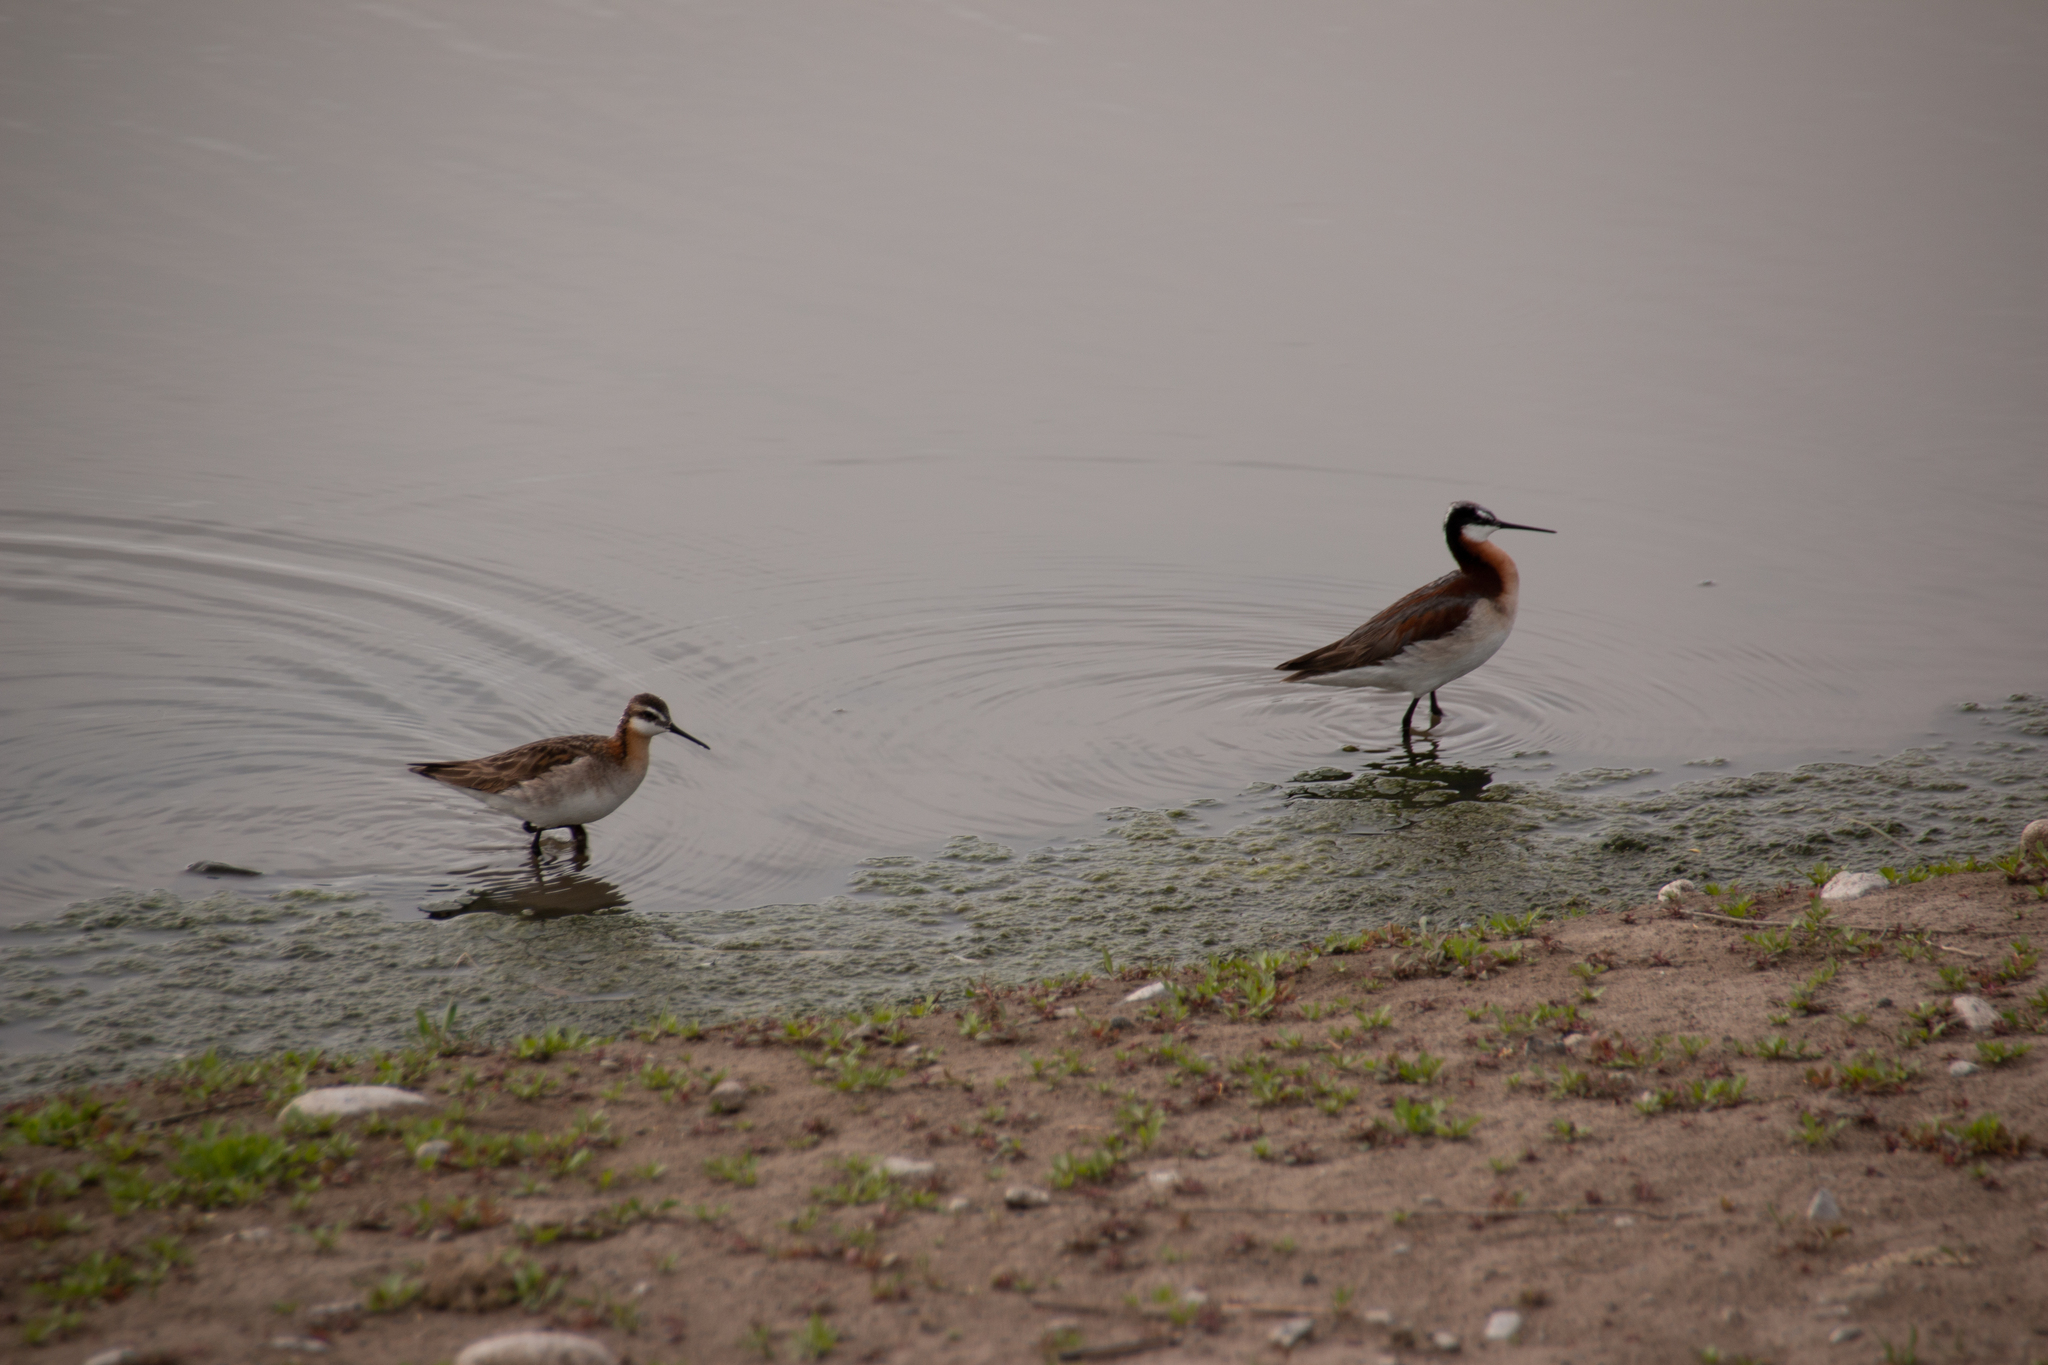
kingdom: Animalia
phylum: Chordata
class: Aves
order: Charadriiformes
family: Scolopacidae
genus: Phalaropus
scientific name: Phalaropus tricolor
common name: Wilson's phalarope
